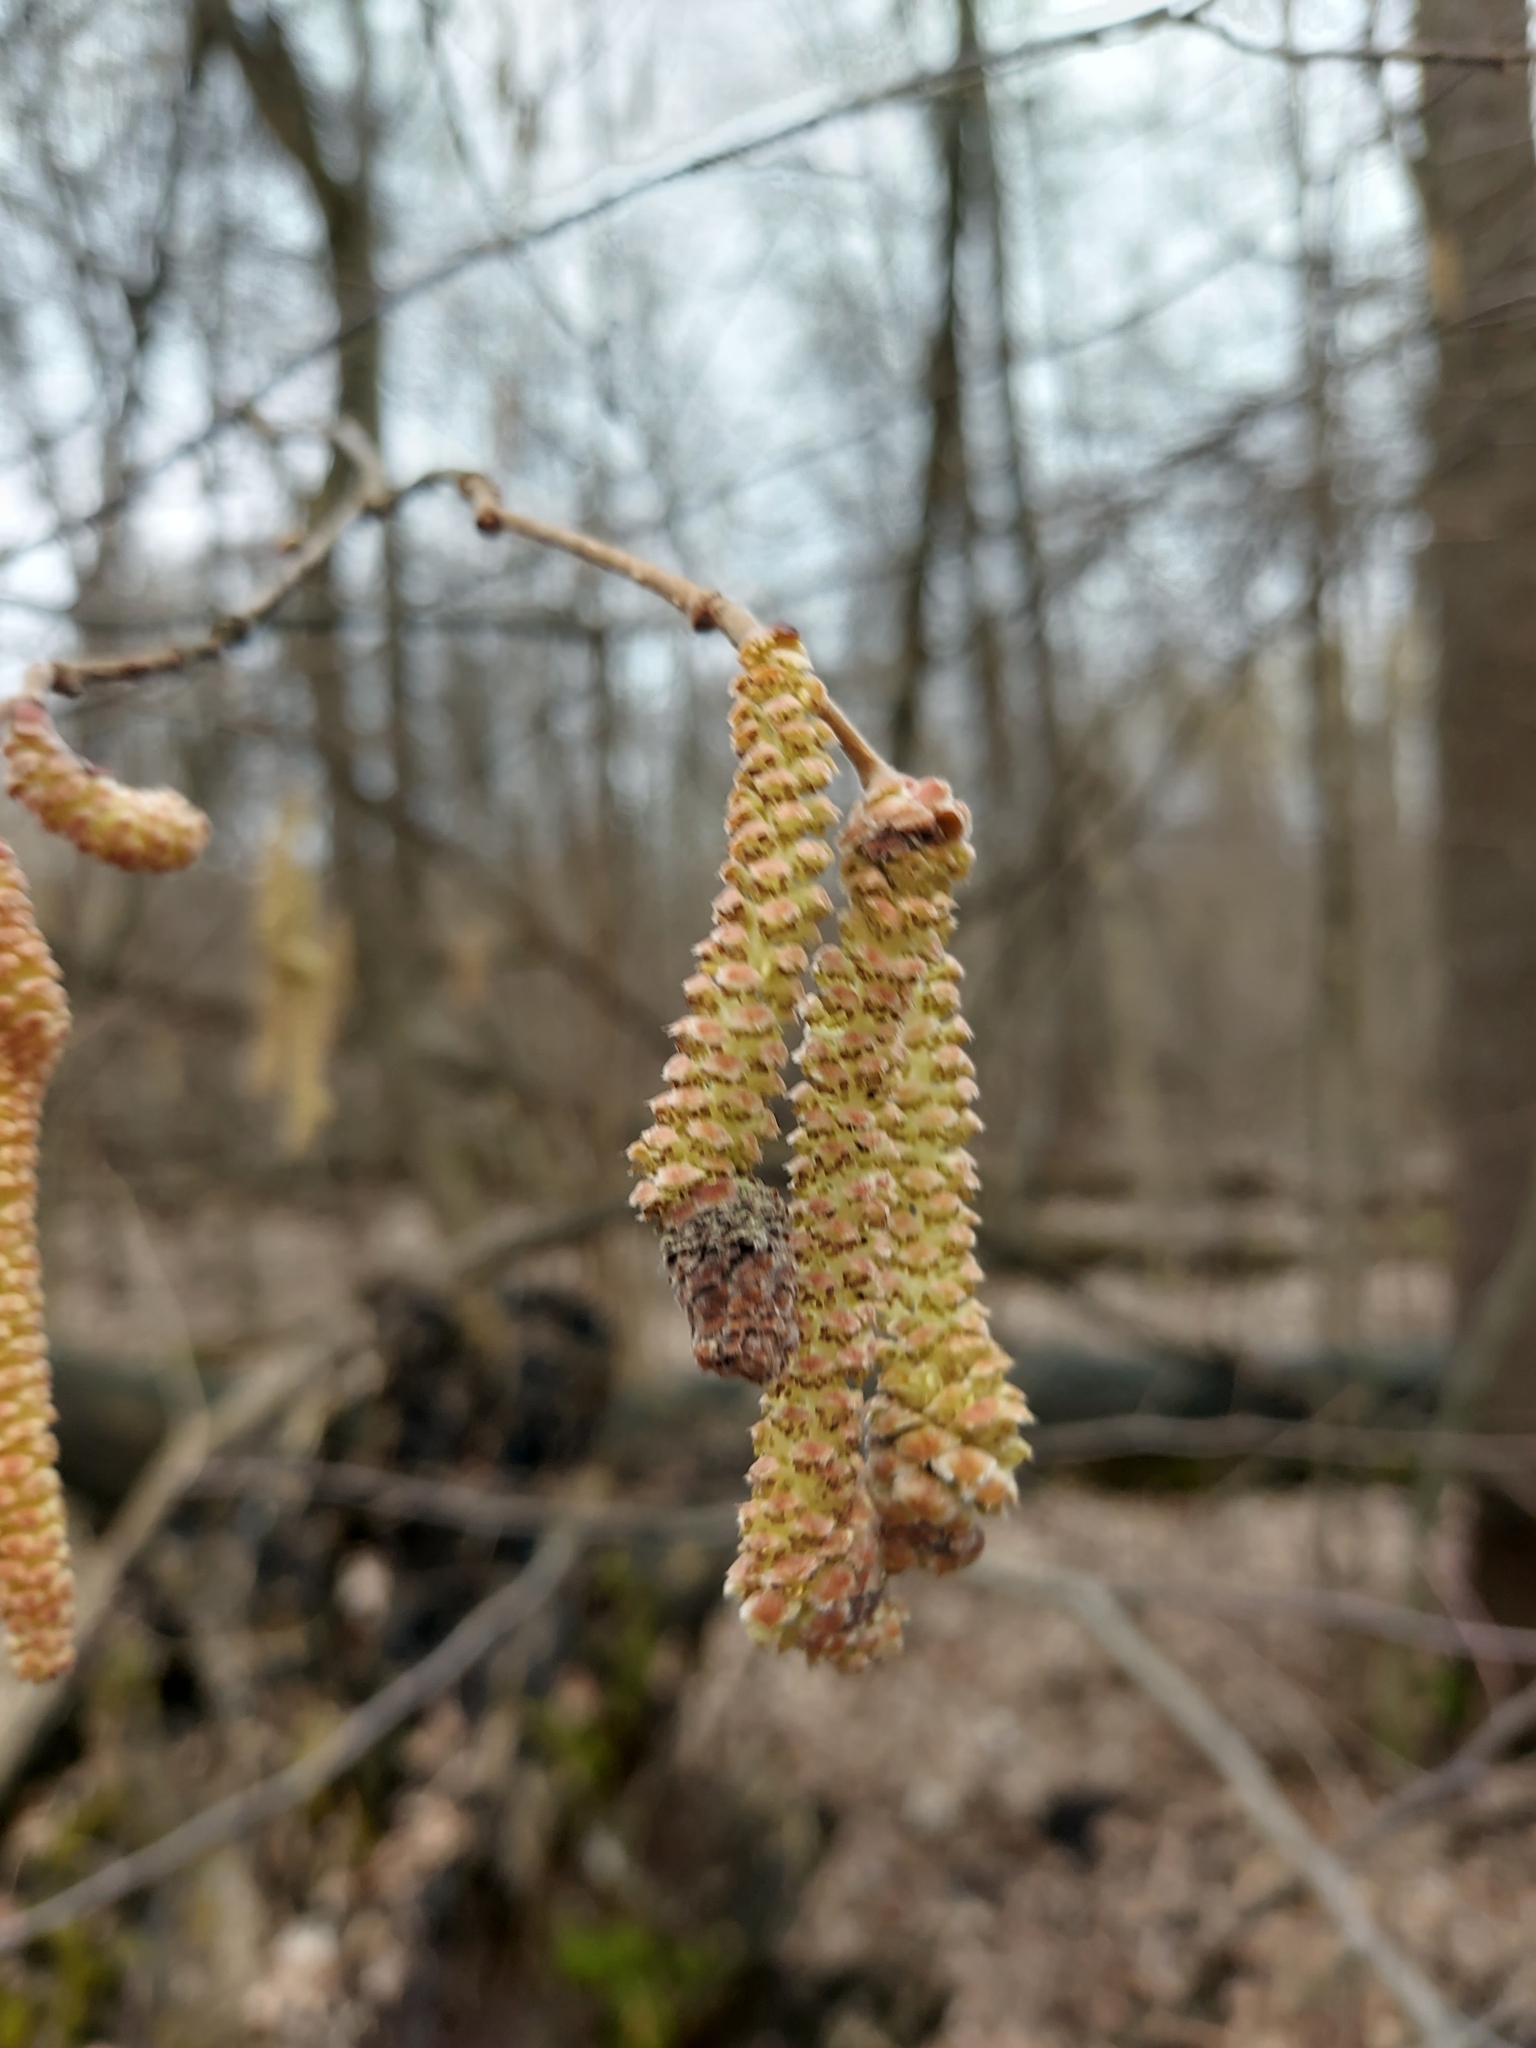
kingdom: Plantae
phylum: Tracheophyta
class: Magnoliopsida
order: Fagales
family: Betulaceae
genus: Corylus
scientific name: Corylus avellana
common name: European hazel
